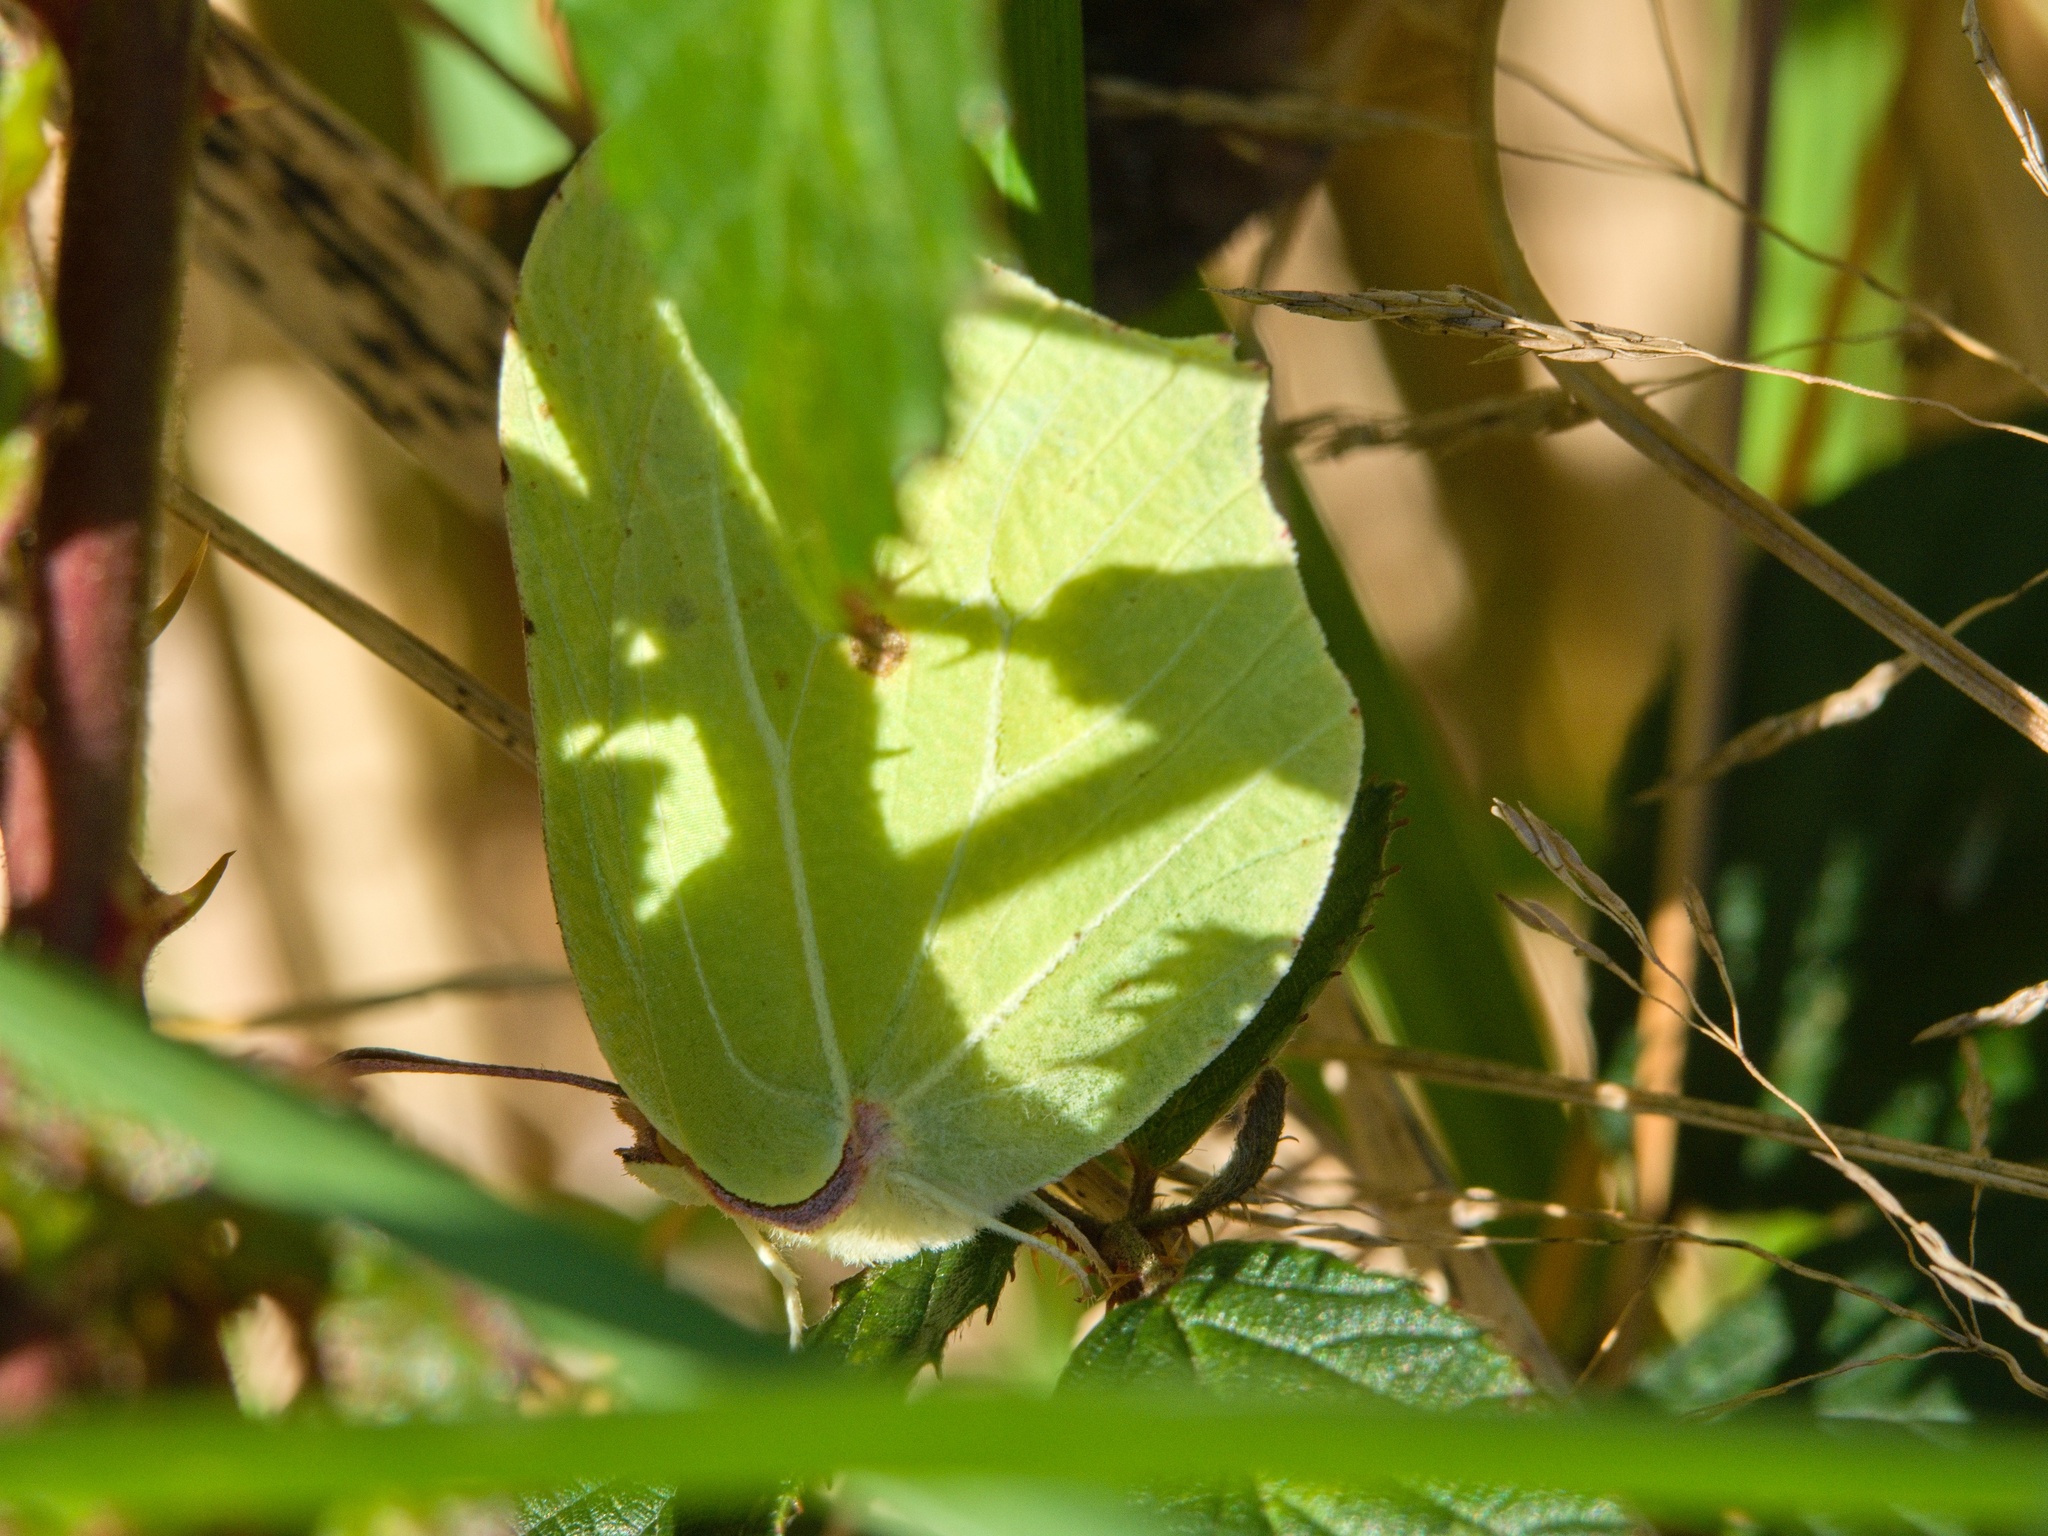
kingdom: Animalia
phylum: Arthropoda
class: Insecta
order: Lepidoptera
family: Pieridae
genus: Gonepteryx
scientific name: Gonepteryx rhamni
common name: Brimstone
